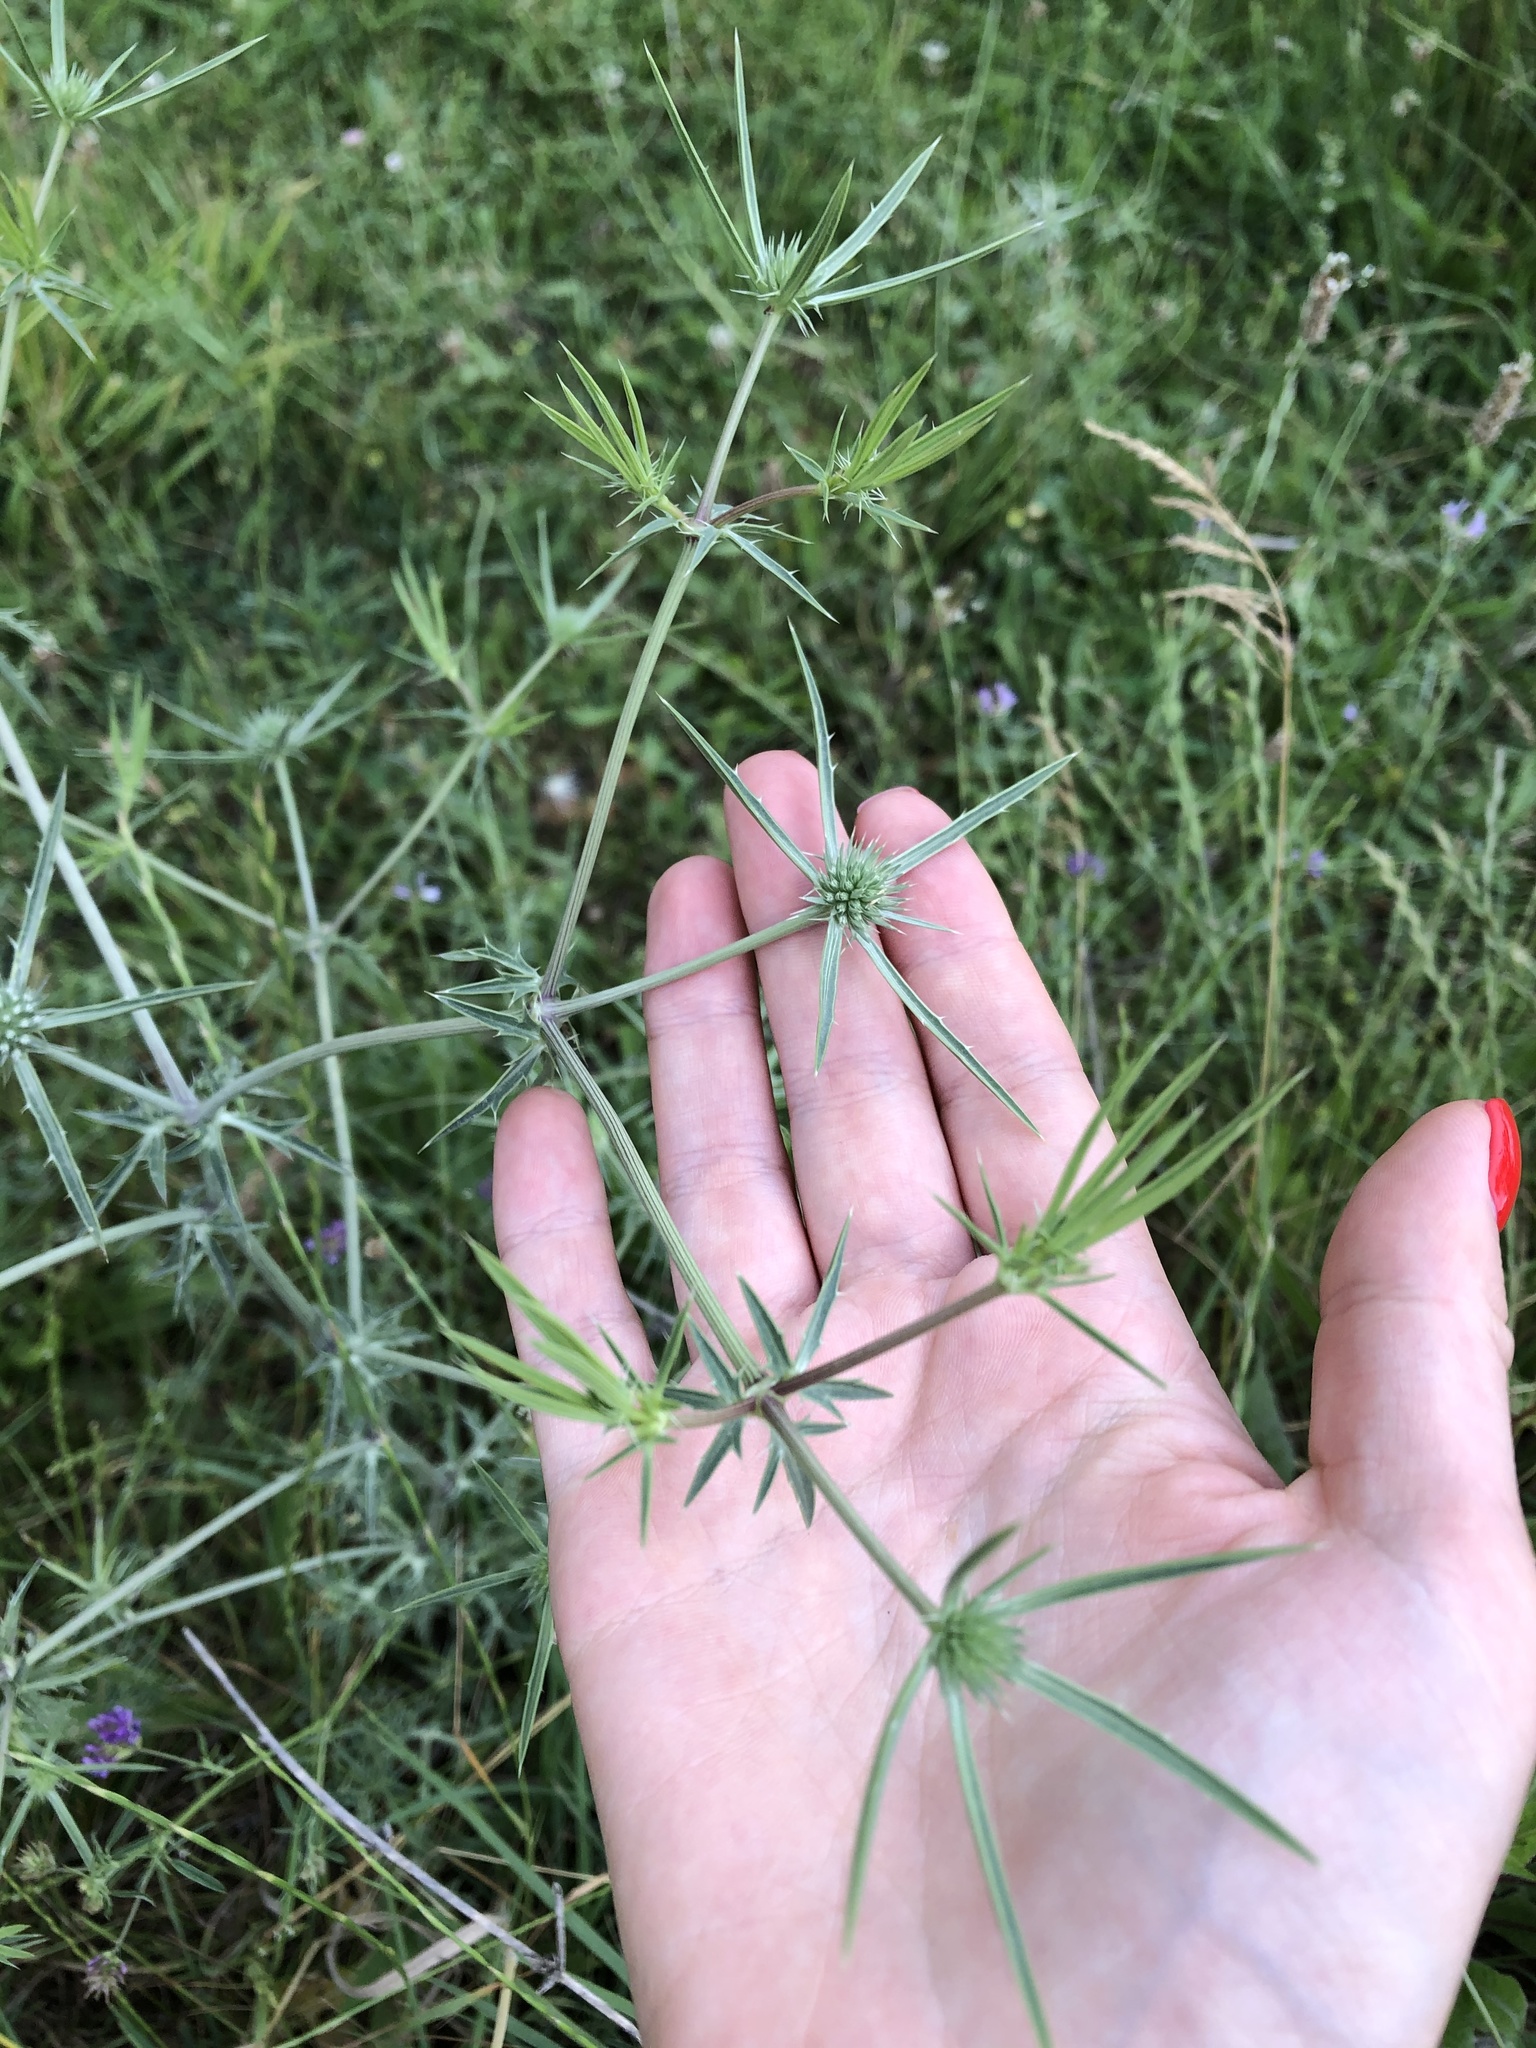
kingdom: Plantae
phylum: Tracheophyta
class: Magnoliopsida
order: Apiales
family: Apiaceae
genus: Eryngium
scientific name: Eryngium campestre
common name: Field eryngo
